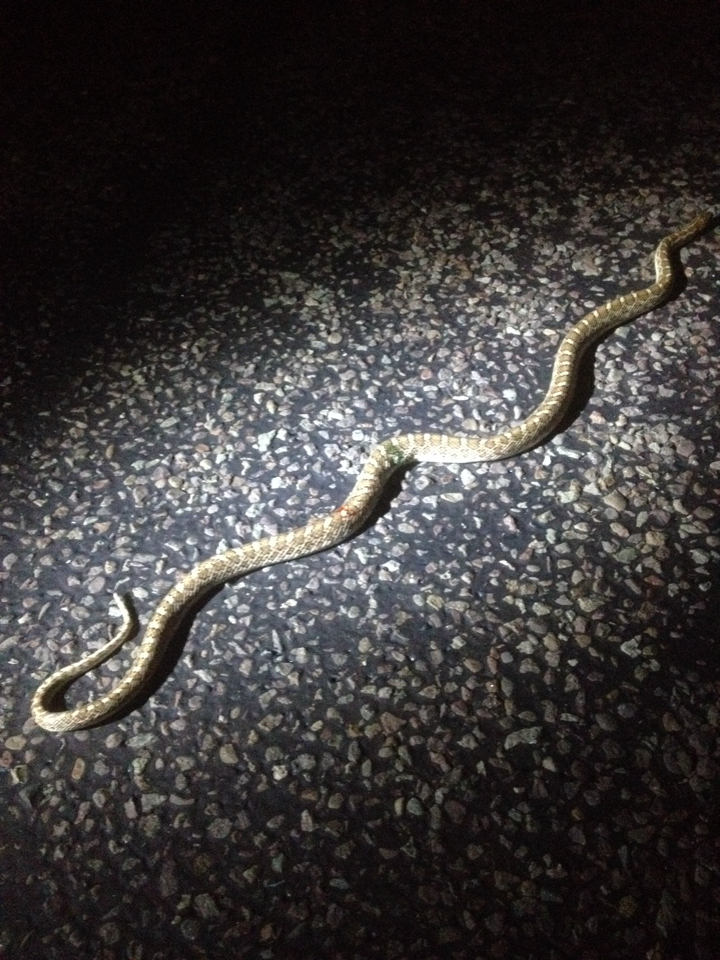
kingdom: Animalia
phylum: Chordata
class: Squamata
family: Colubridae
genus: Arizona
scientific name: Arizona elegans
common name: Glossy snake
